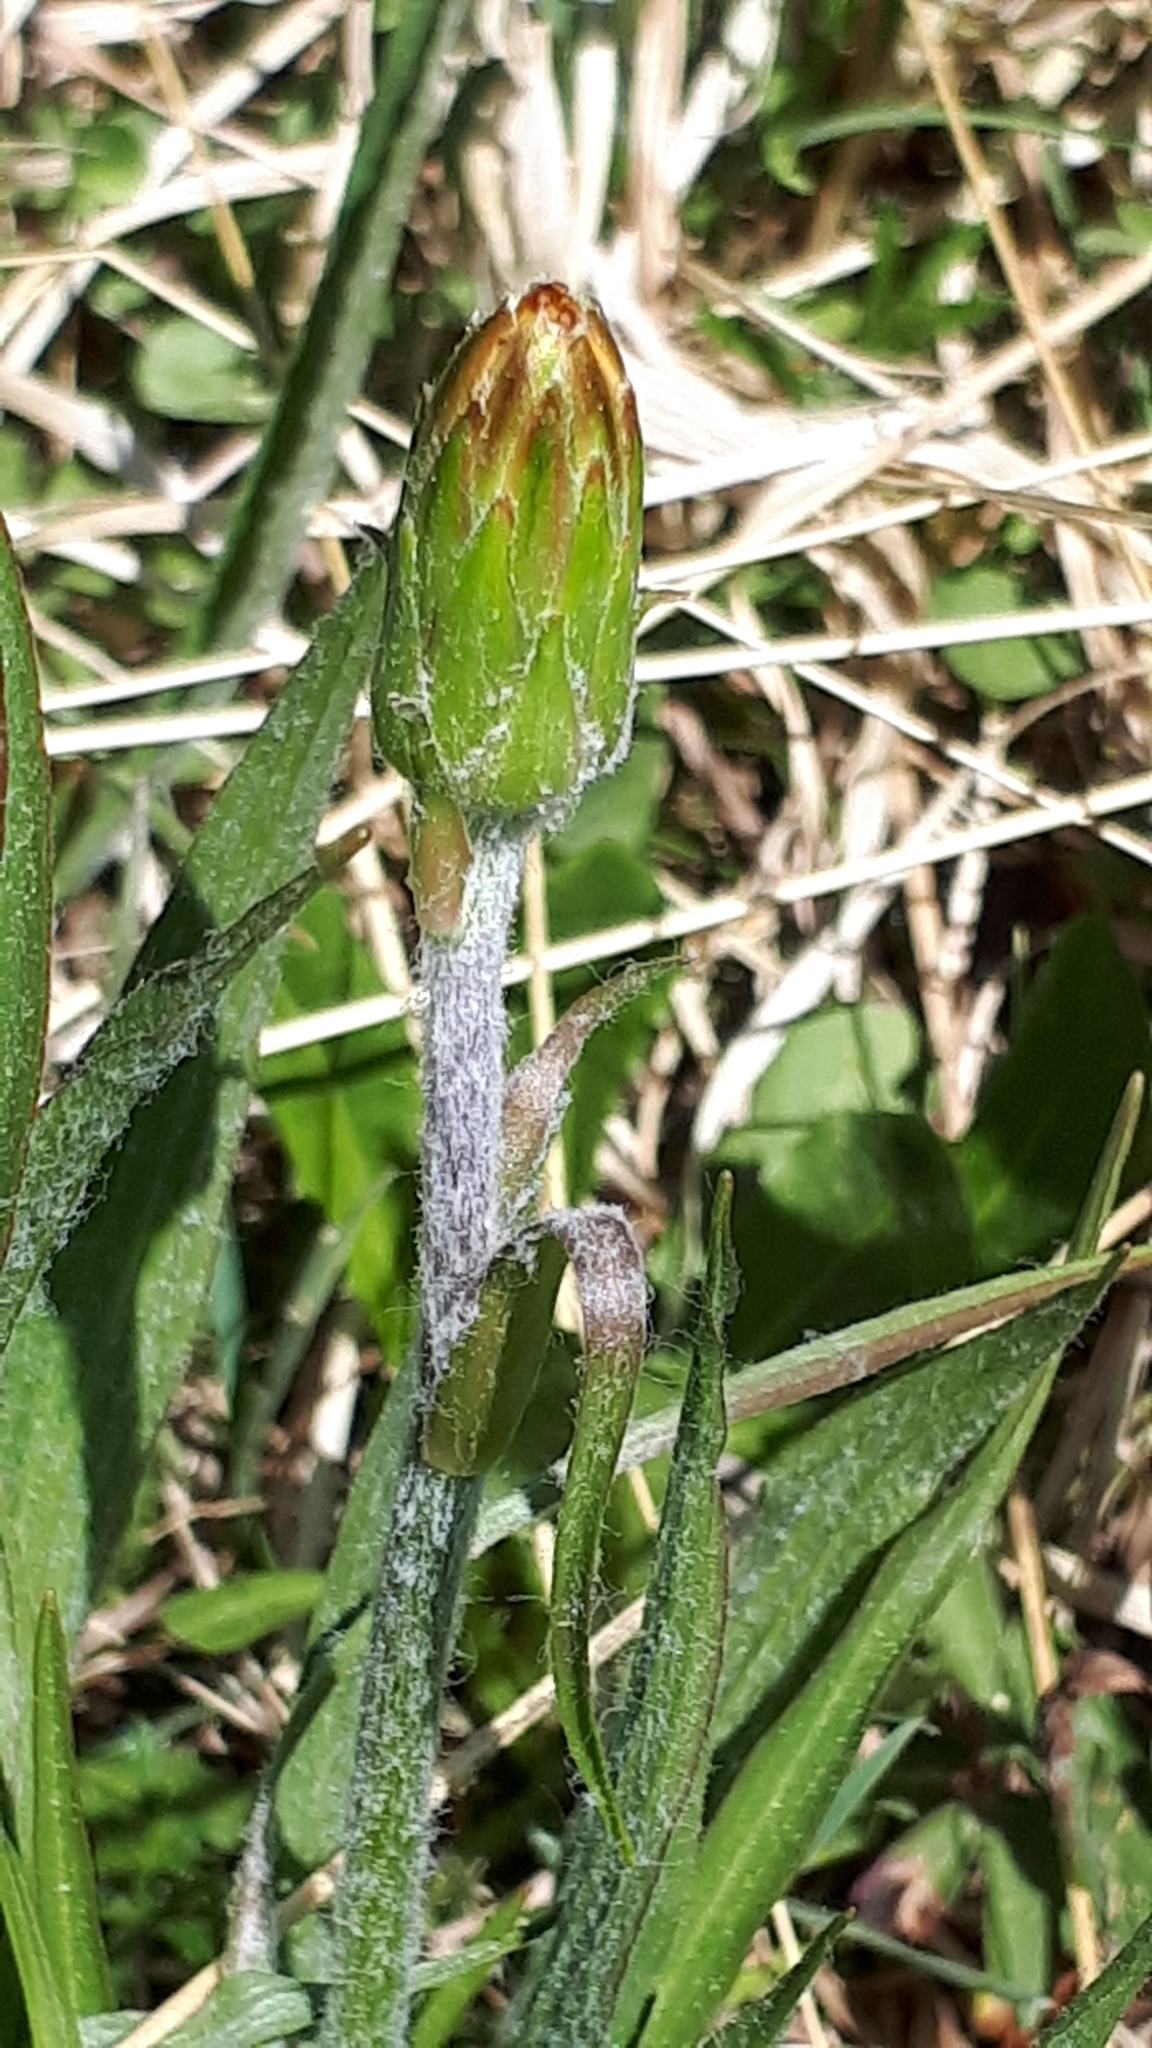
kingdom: Plantae
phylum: Tracheophyta
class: Magnoliopsida
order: Asterales
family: Asteraceae
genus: Scorzonera
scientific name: Scorzonera humilis
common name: Viper's-grass
